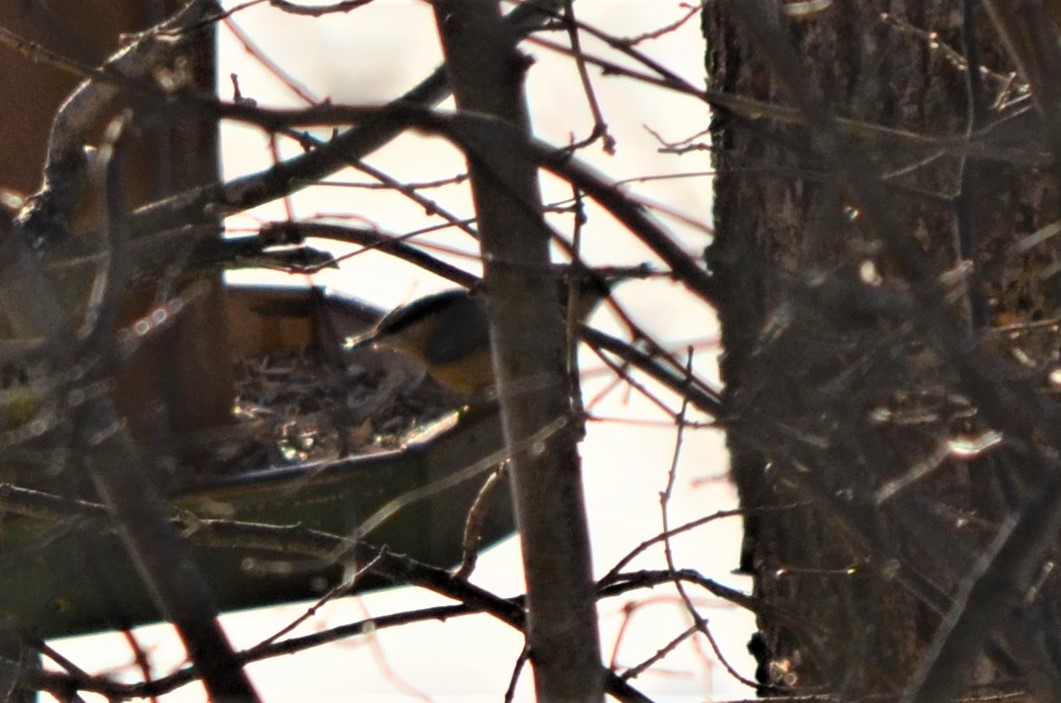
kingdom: Animalia
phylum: Chordata
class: Aves
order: Passeriformes
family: Sittidae
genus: Sitta
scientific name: Sitta europaea
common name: Eurasian nuthatch
